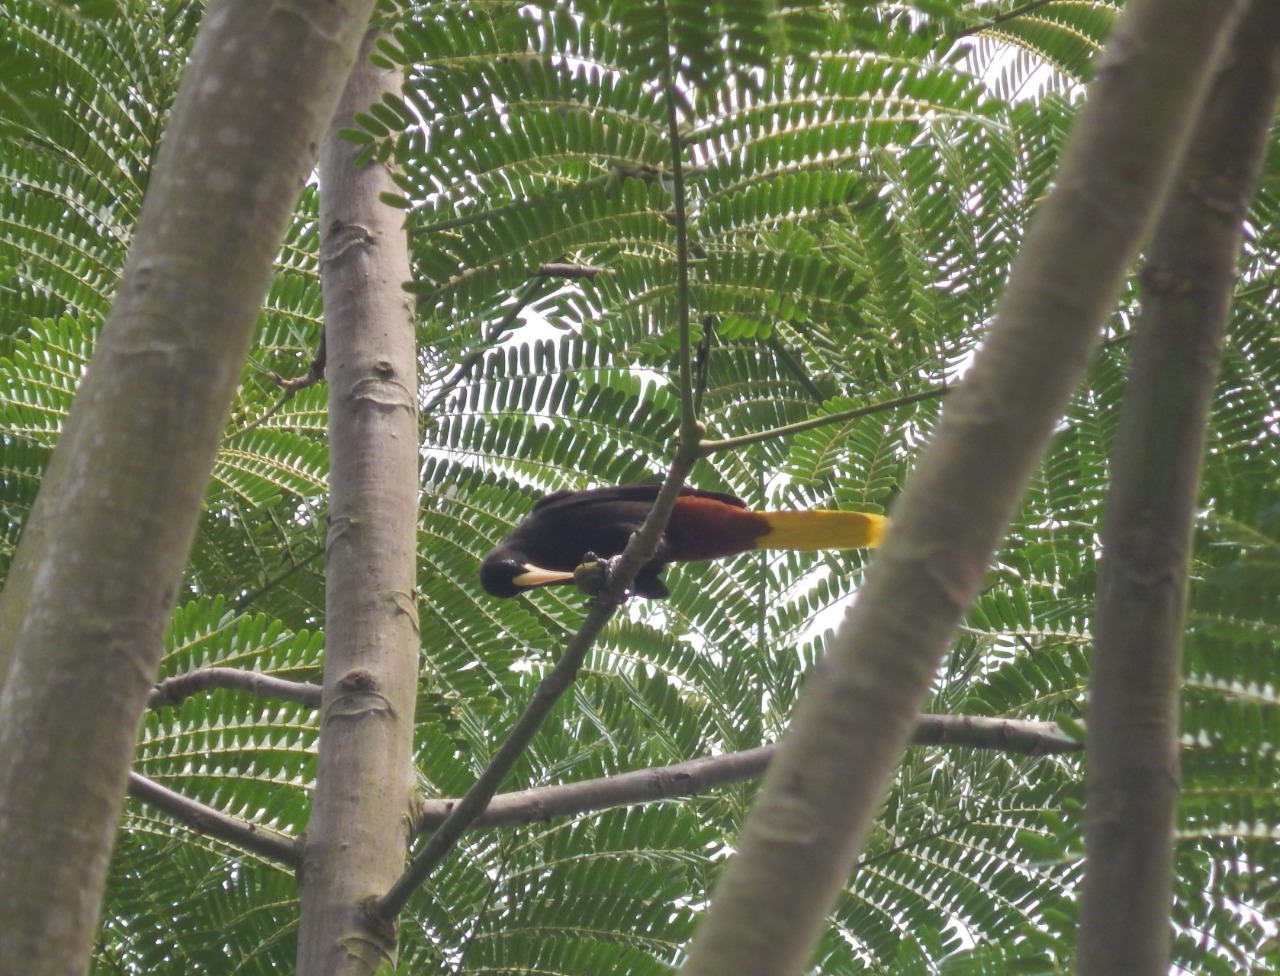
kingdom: Animalia
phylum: Chordata
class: Aves
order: Passeriformes
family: Icteridae
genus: Psarocolius
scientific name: Psarocolius decumanus
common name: Crested oropendola
